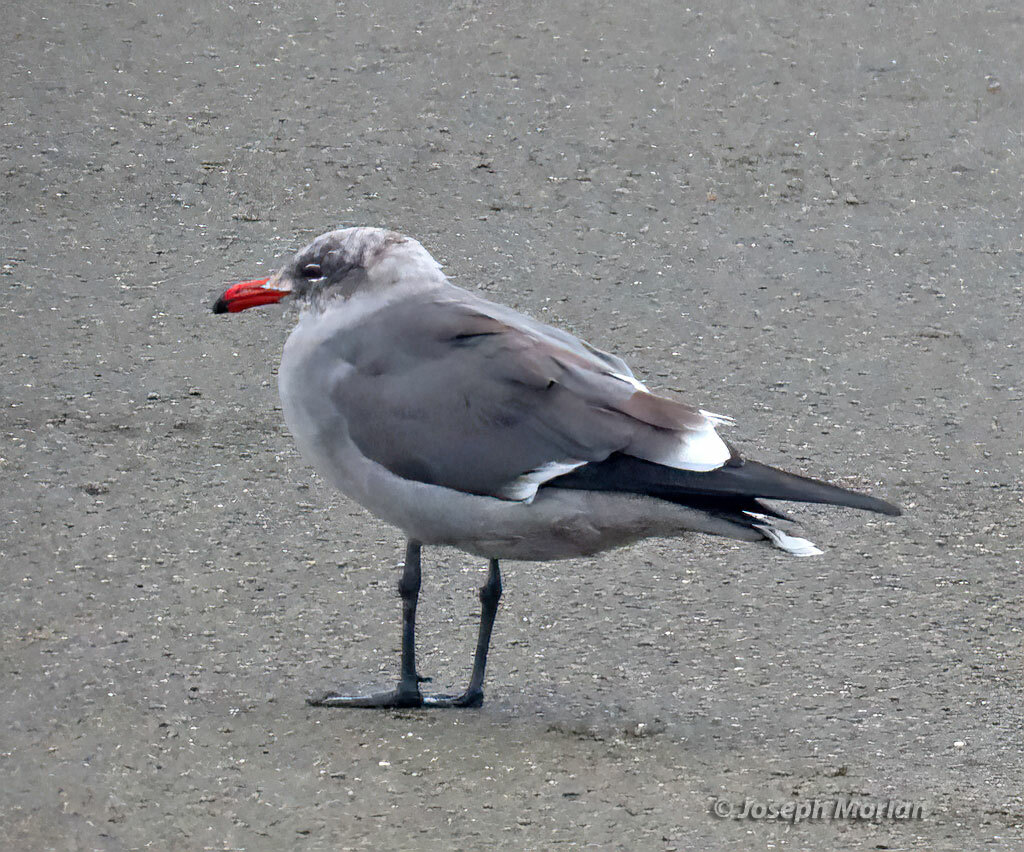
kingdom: Animalia
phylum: Chordata
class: Aves
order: Charadriiformes
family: Laridae
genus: Larus
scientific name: Larus heermanni
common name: Heermann's gull
